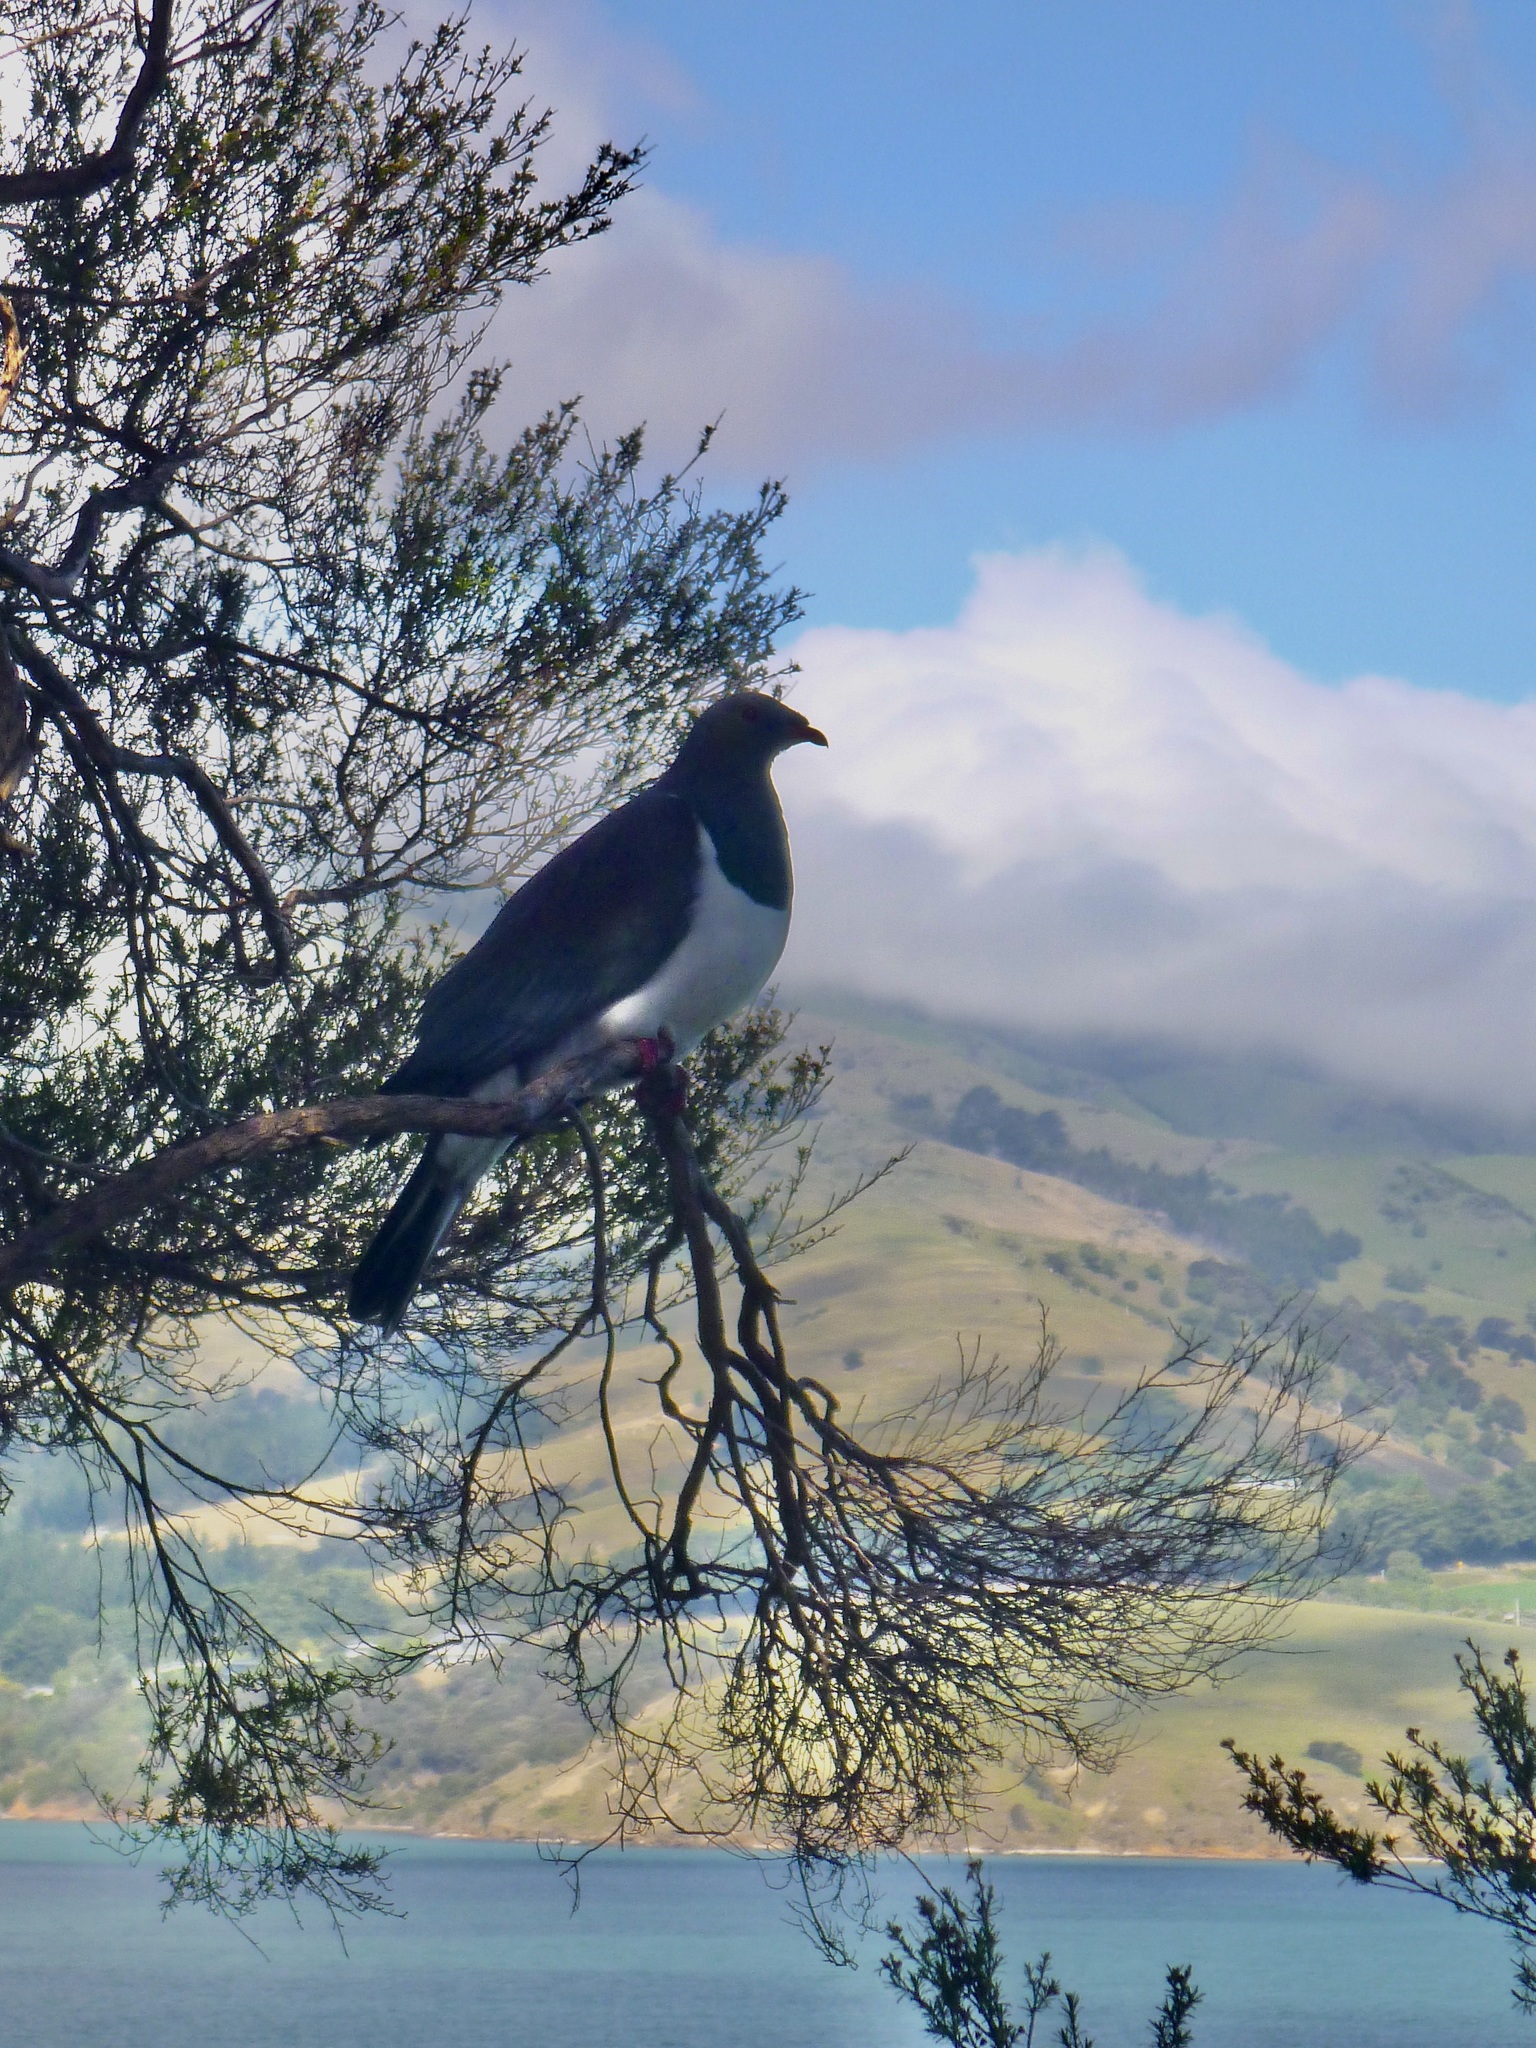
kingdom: Animalia
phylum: Chordata
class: Aves
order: Columbiformes
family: Columbidae
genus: Hemiphaga
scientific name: Hemiphaga novaeseelandiae
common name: New zealand pigeon
